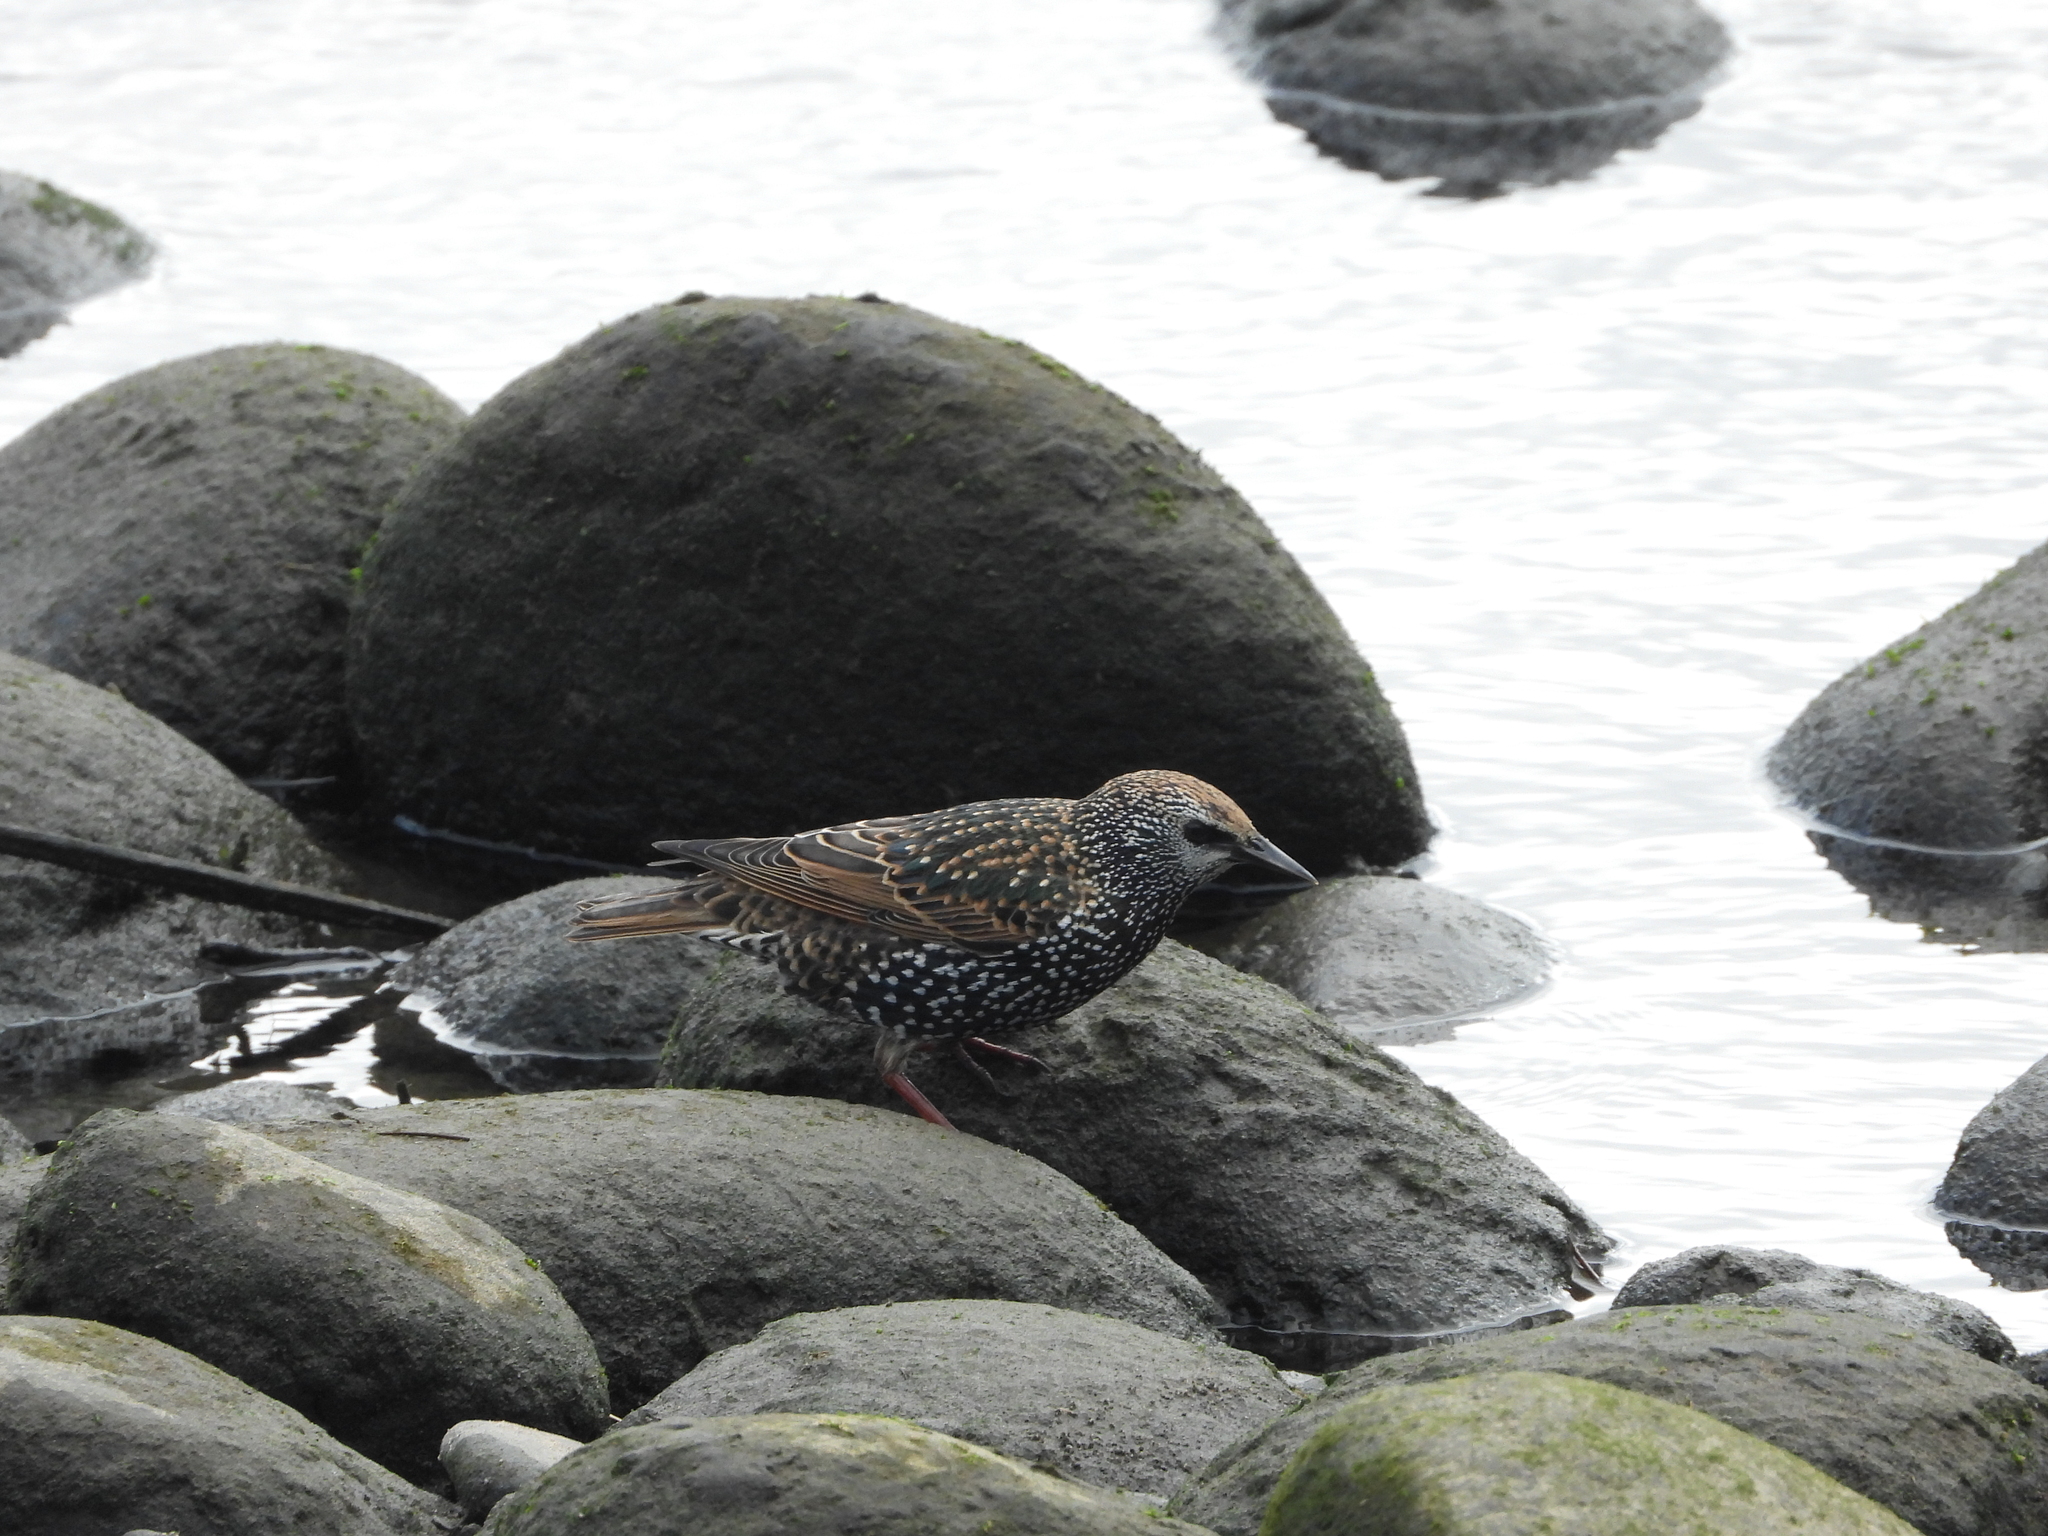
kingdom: Animalia
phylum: Chordata
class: Aves
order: Passeriformes
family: Sturnidae
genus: Sturnus
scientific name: Sturnus vulgaris
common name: Common starling
